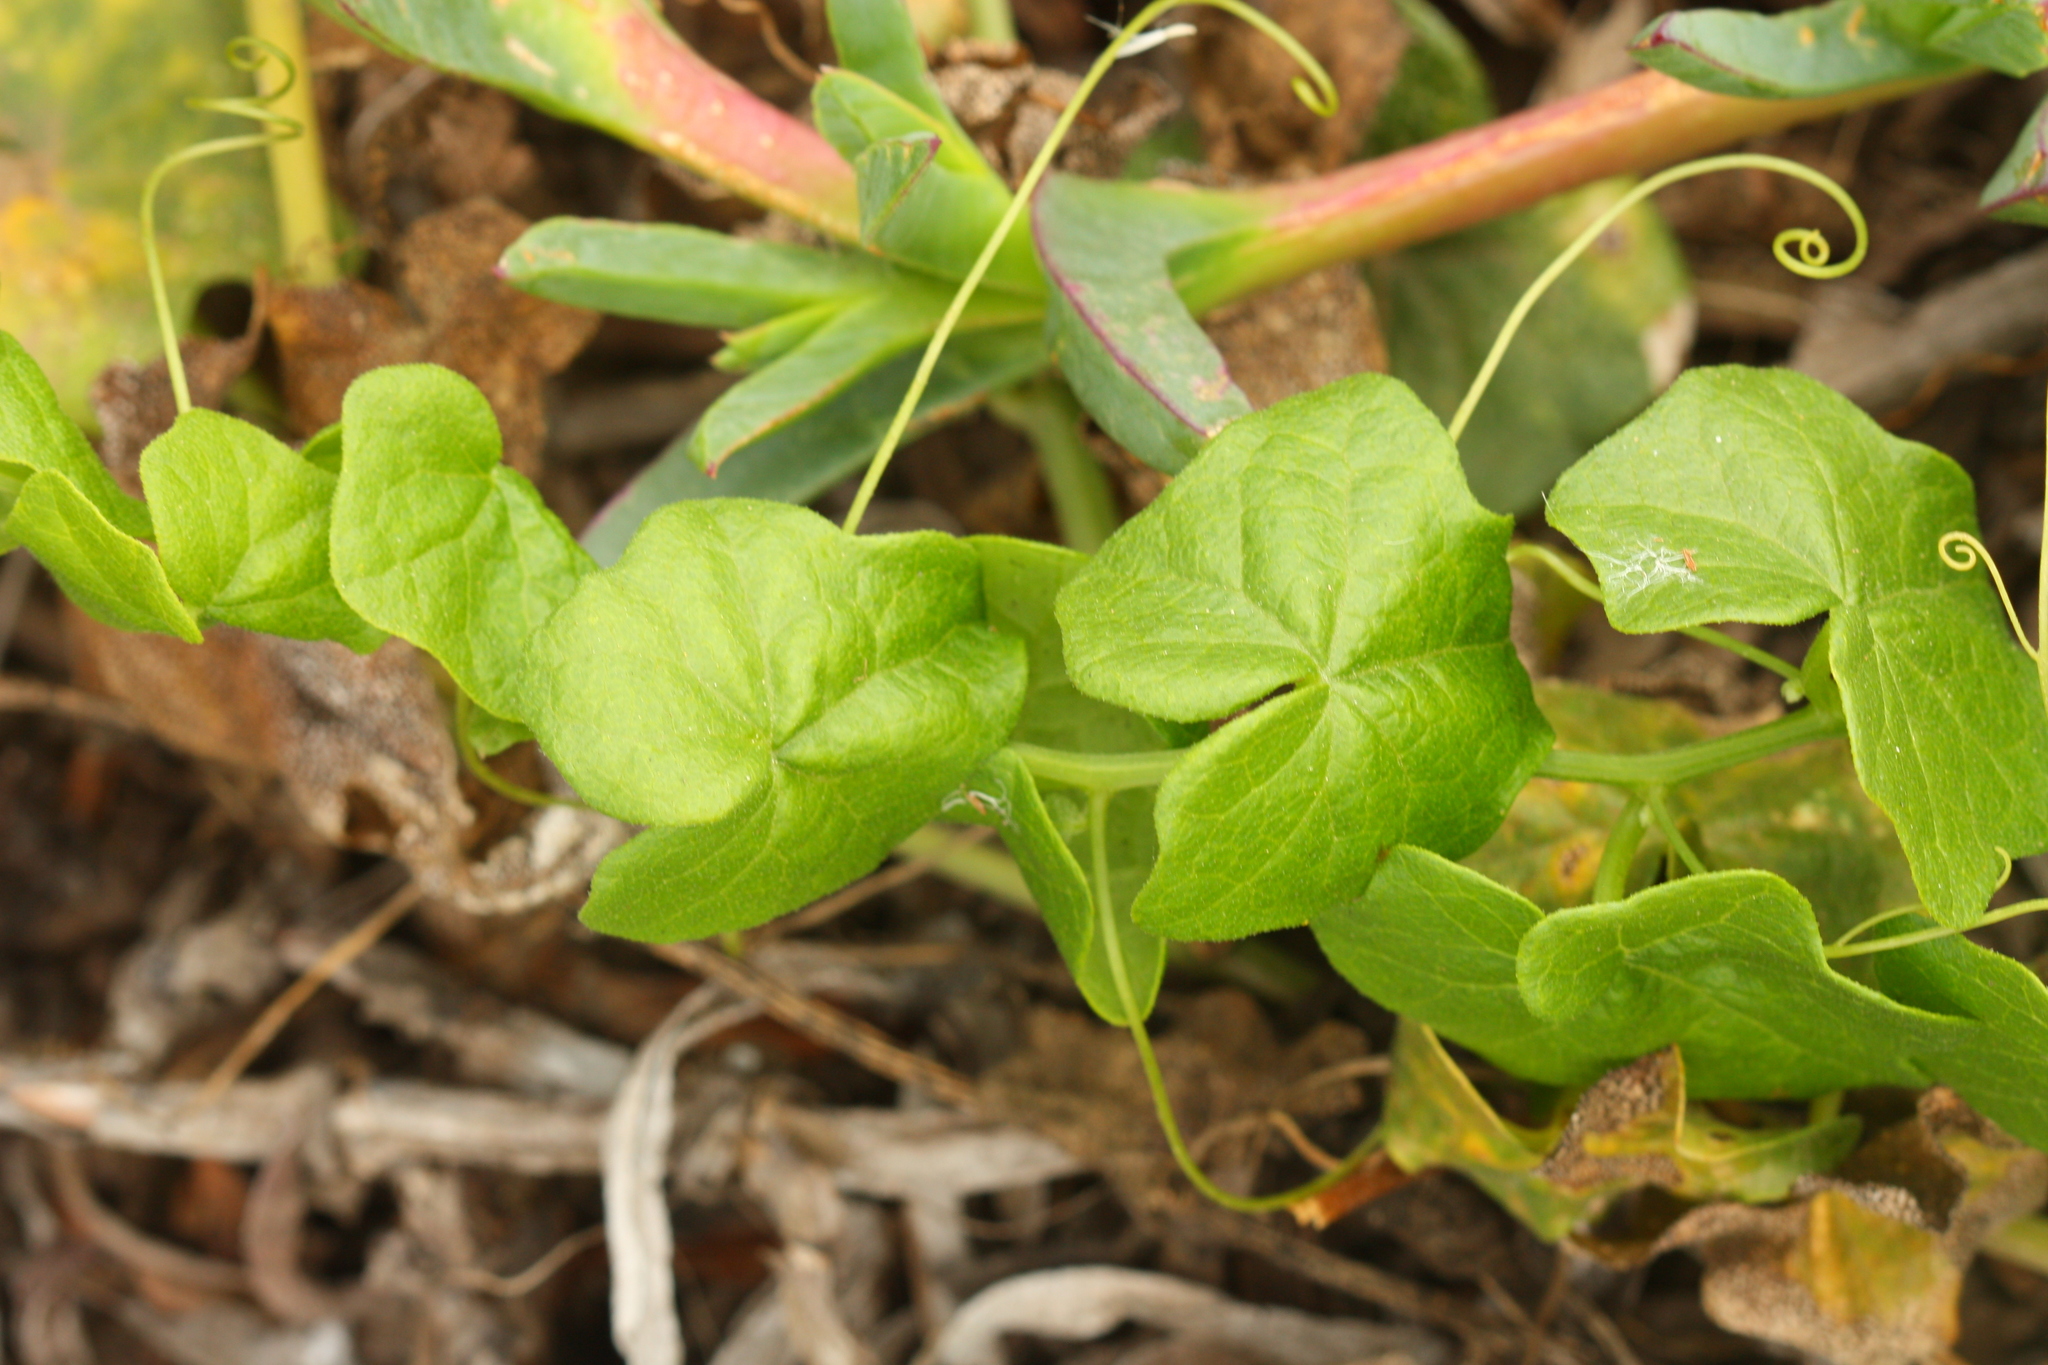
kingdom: Plantae
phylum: Tracheophyta
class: Magnoliopsida
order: Cucurbitales
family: Cucurbitaceae
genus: Marah
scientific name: Marah
